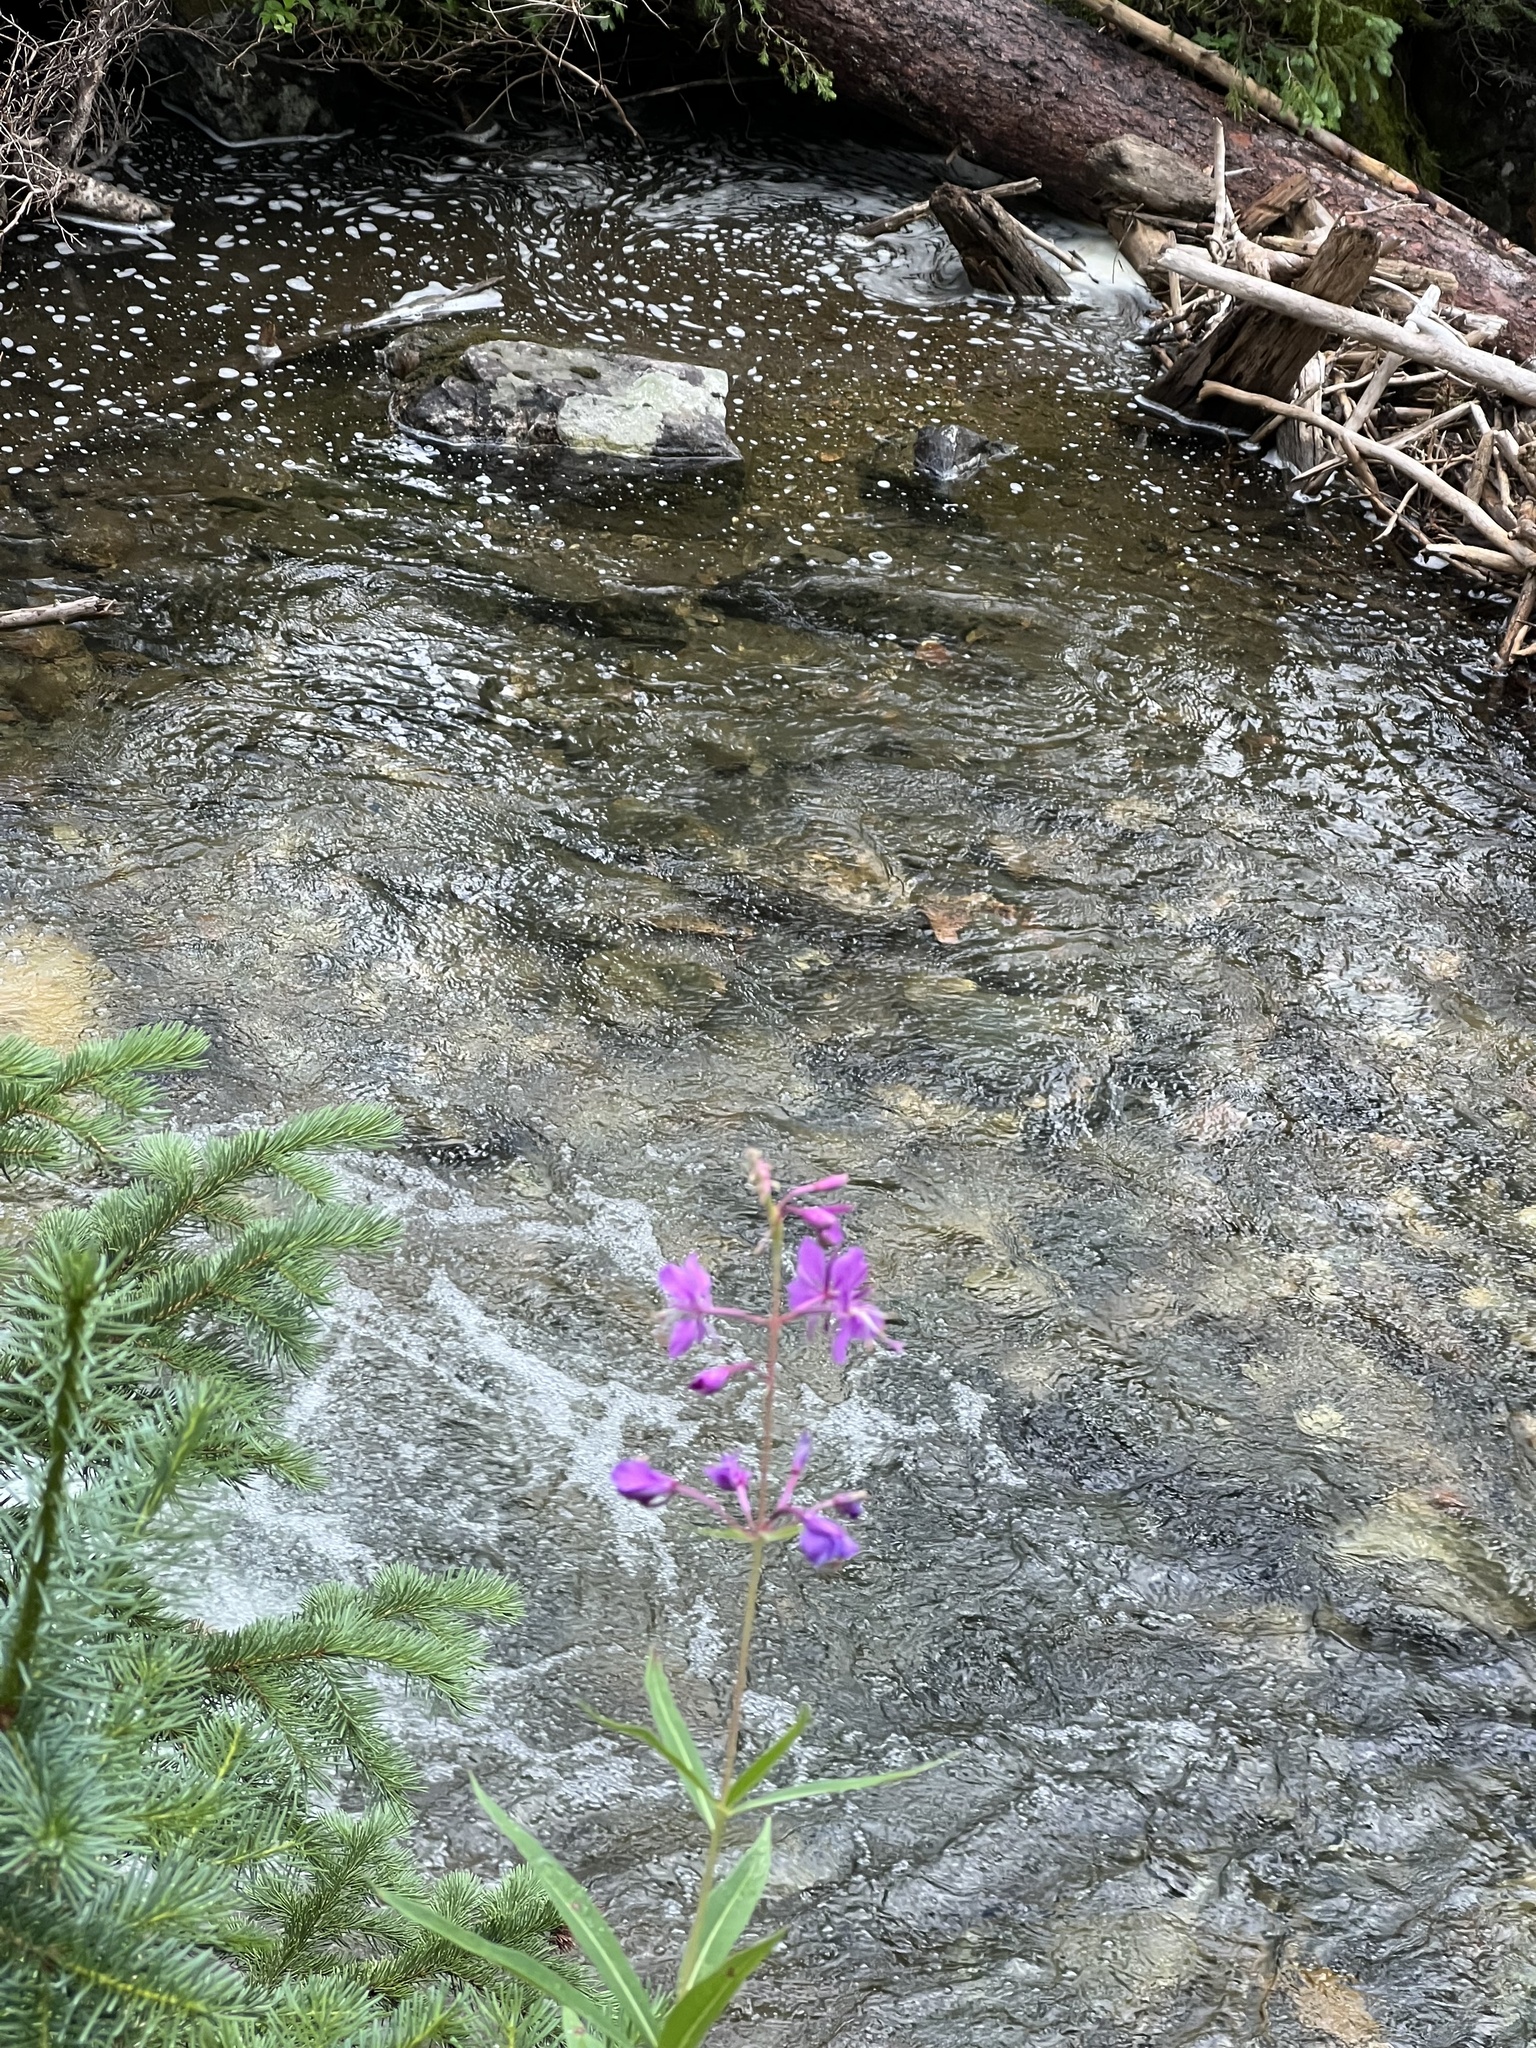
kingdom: Plantae
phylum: Tracheophyta
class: Magnoliopsida
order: Myrtales
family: Onagraceae
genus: Chamaenerion
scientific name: Chamaenerion angustifolium
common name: Fireweed
